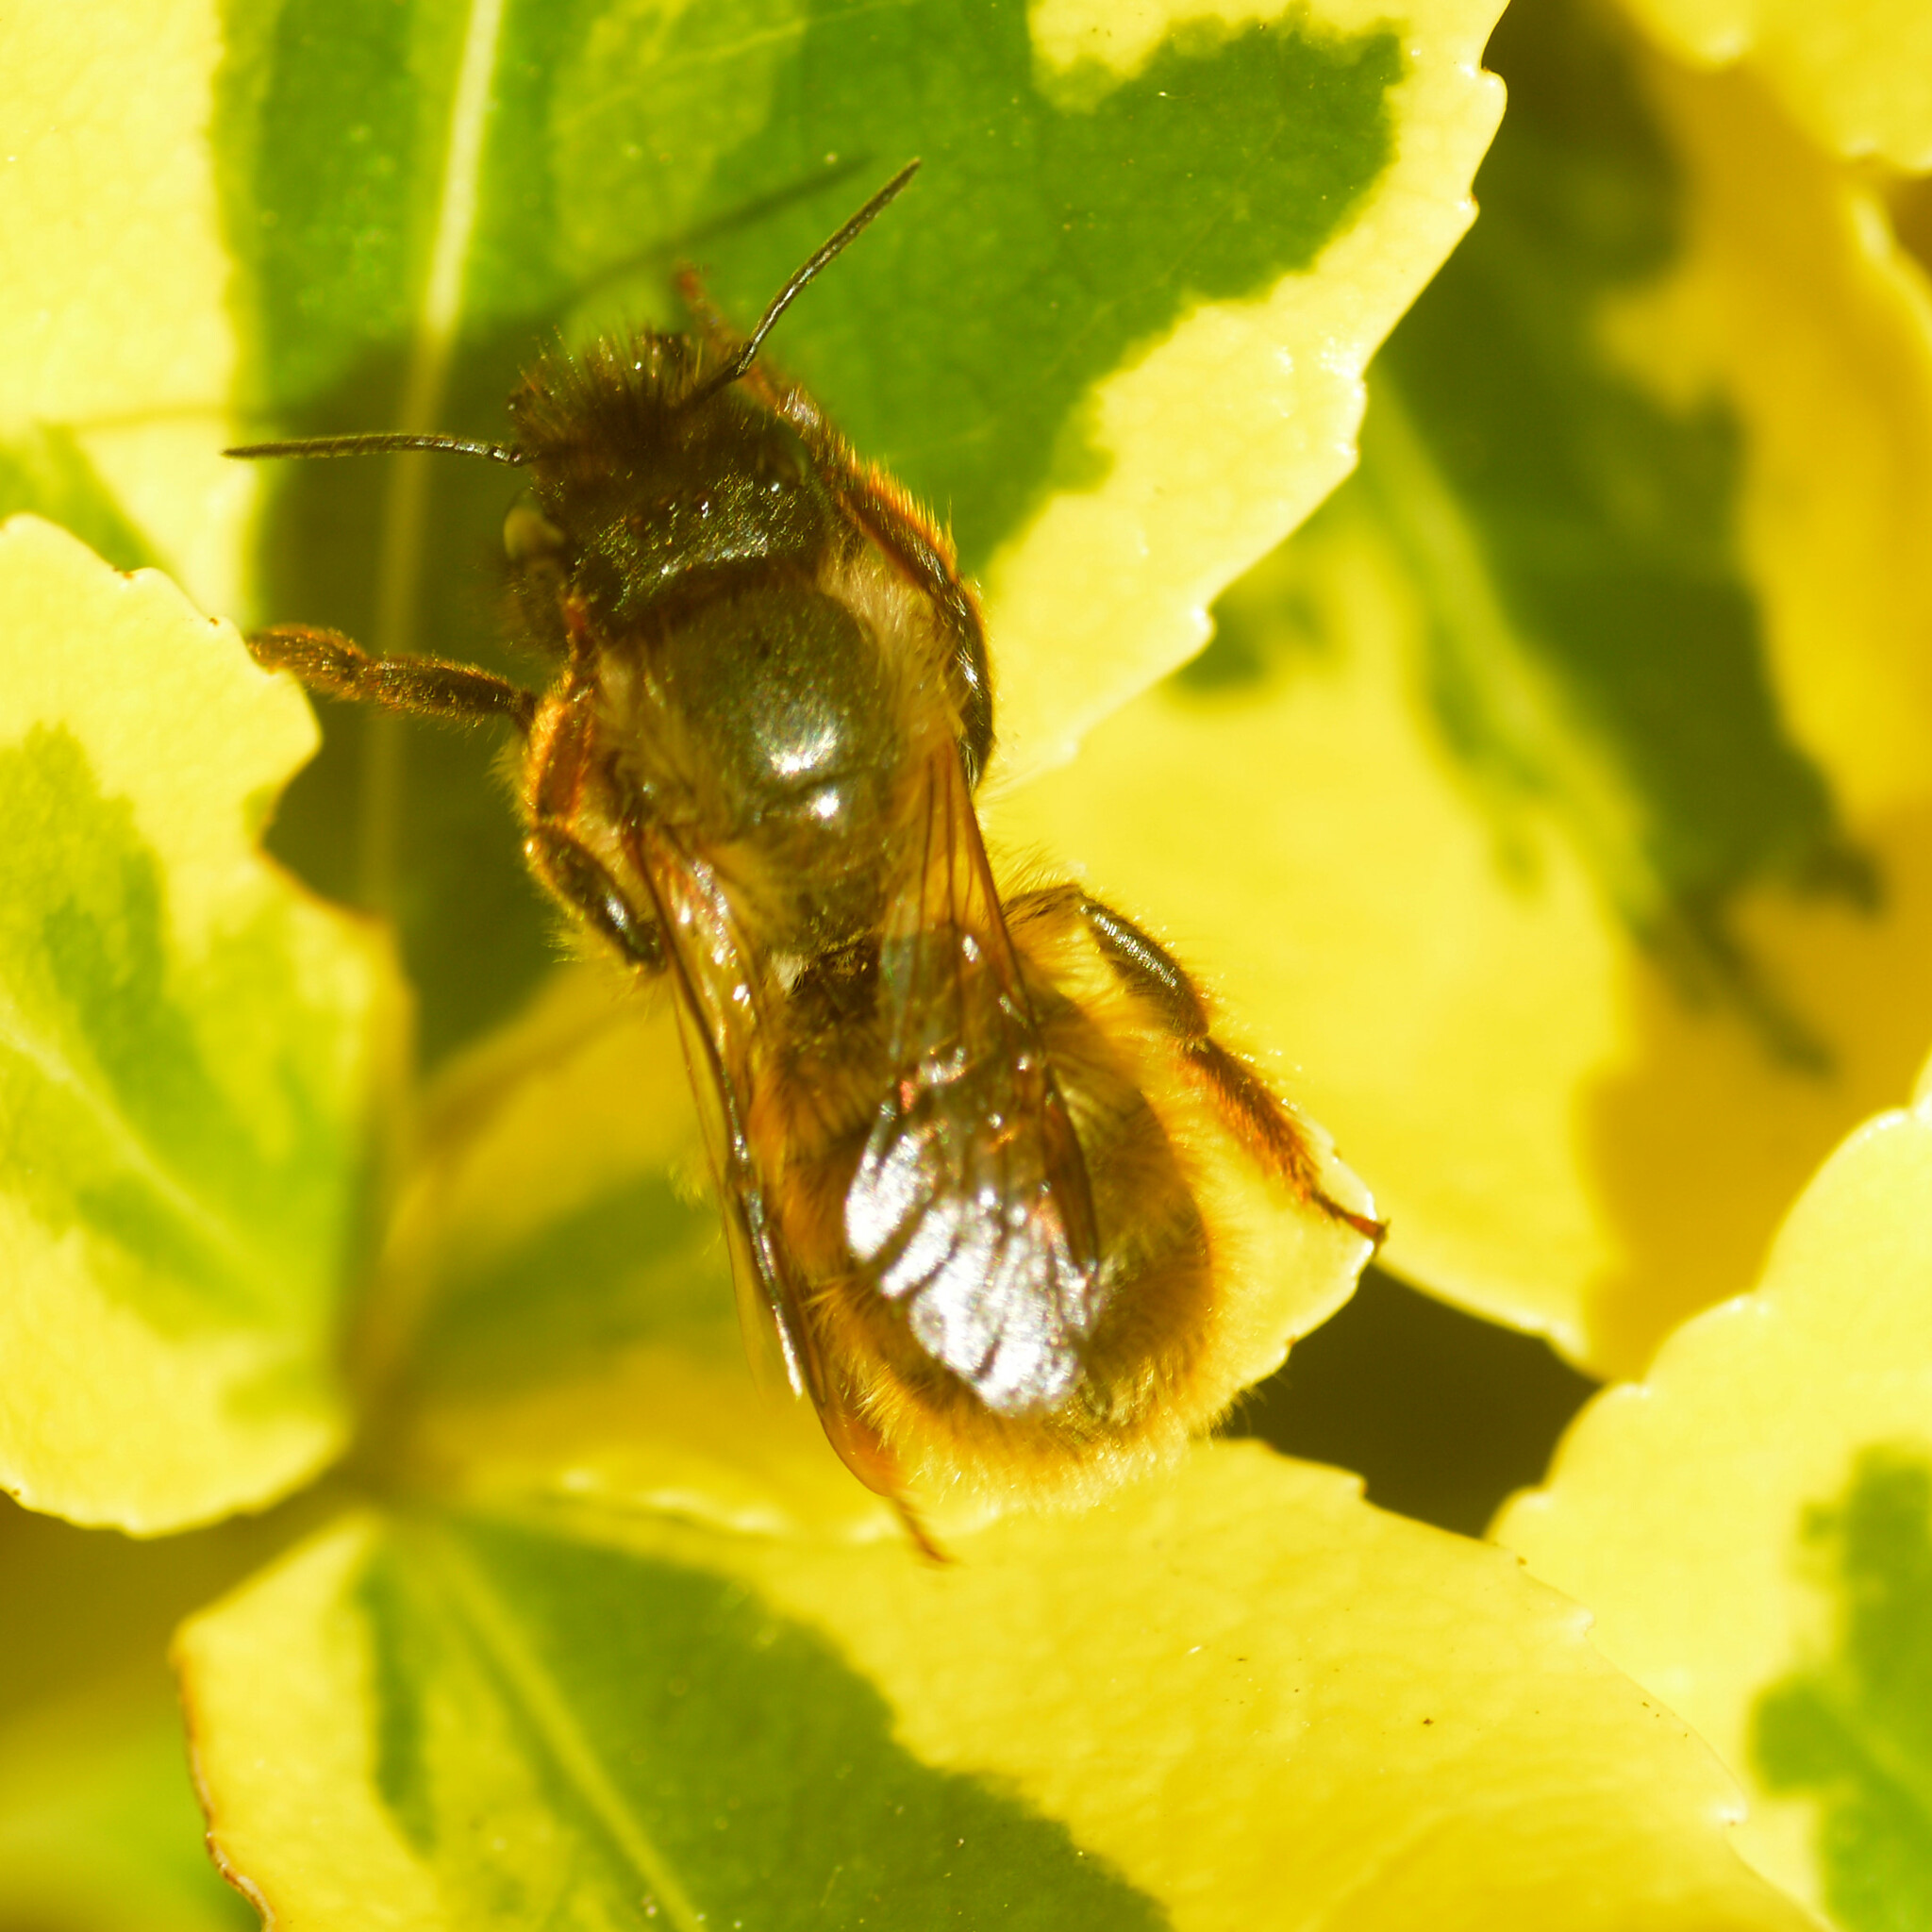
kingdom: Animalia
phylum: Arthropoda
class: Insecta
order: Hymenoptera
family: Megachilidae
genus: Osmia
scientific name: Osmia bicornis
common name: Red mason bee
